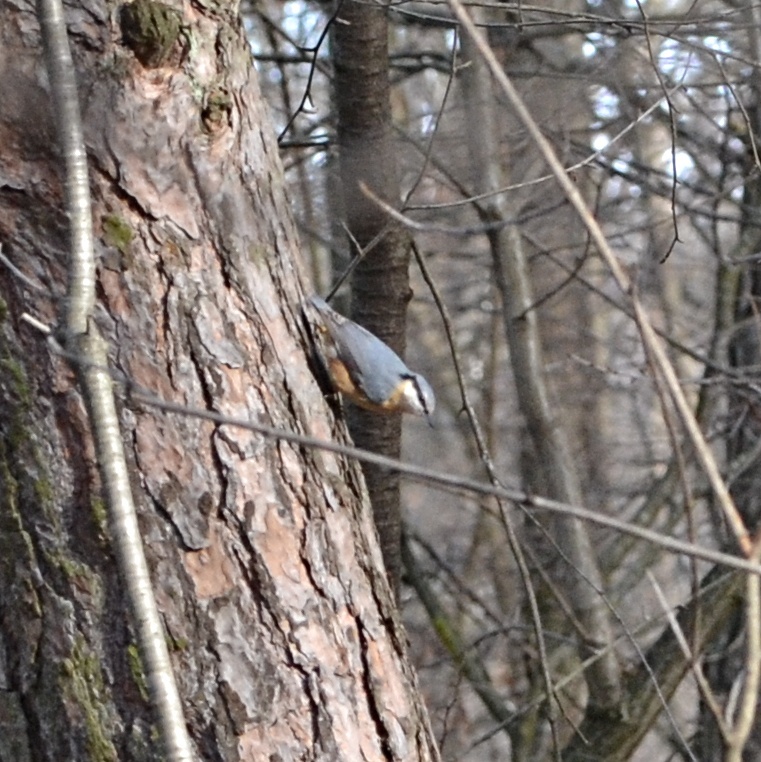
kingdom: Animalia
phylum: Chordata
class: Aves
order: Passeriformes
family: Sittidae
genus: Sitta
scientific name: Sitta europaea
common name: Eurasian nuthatch
